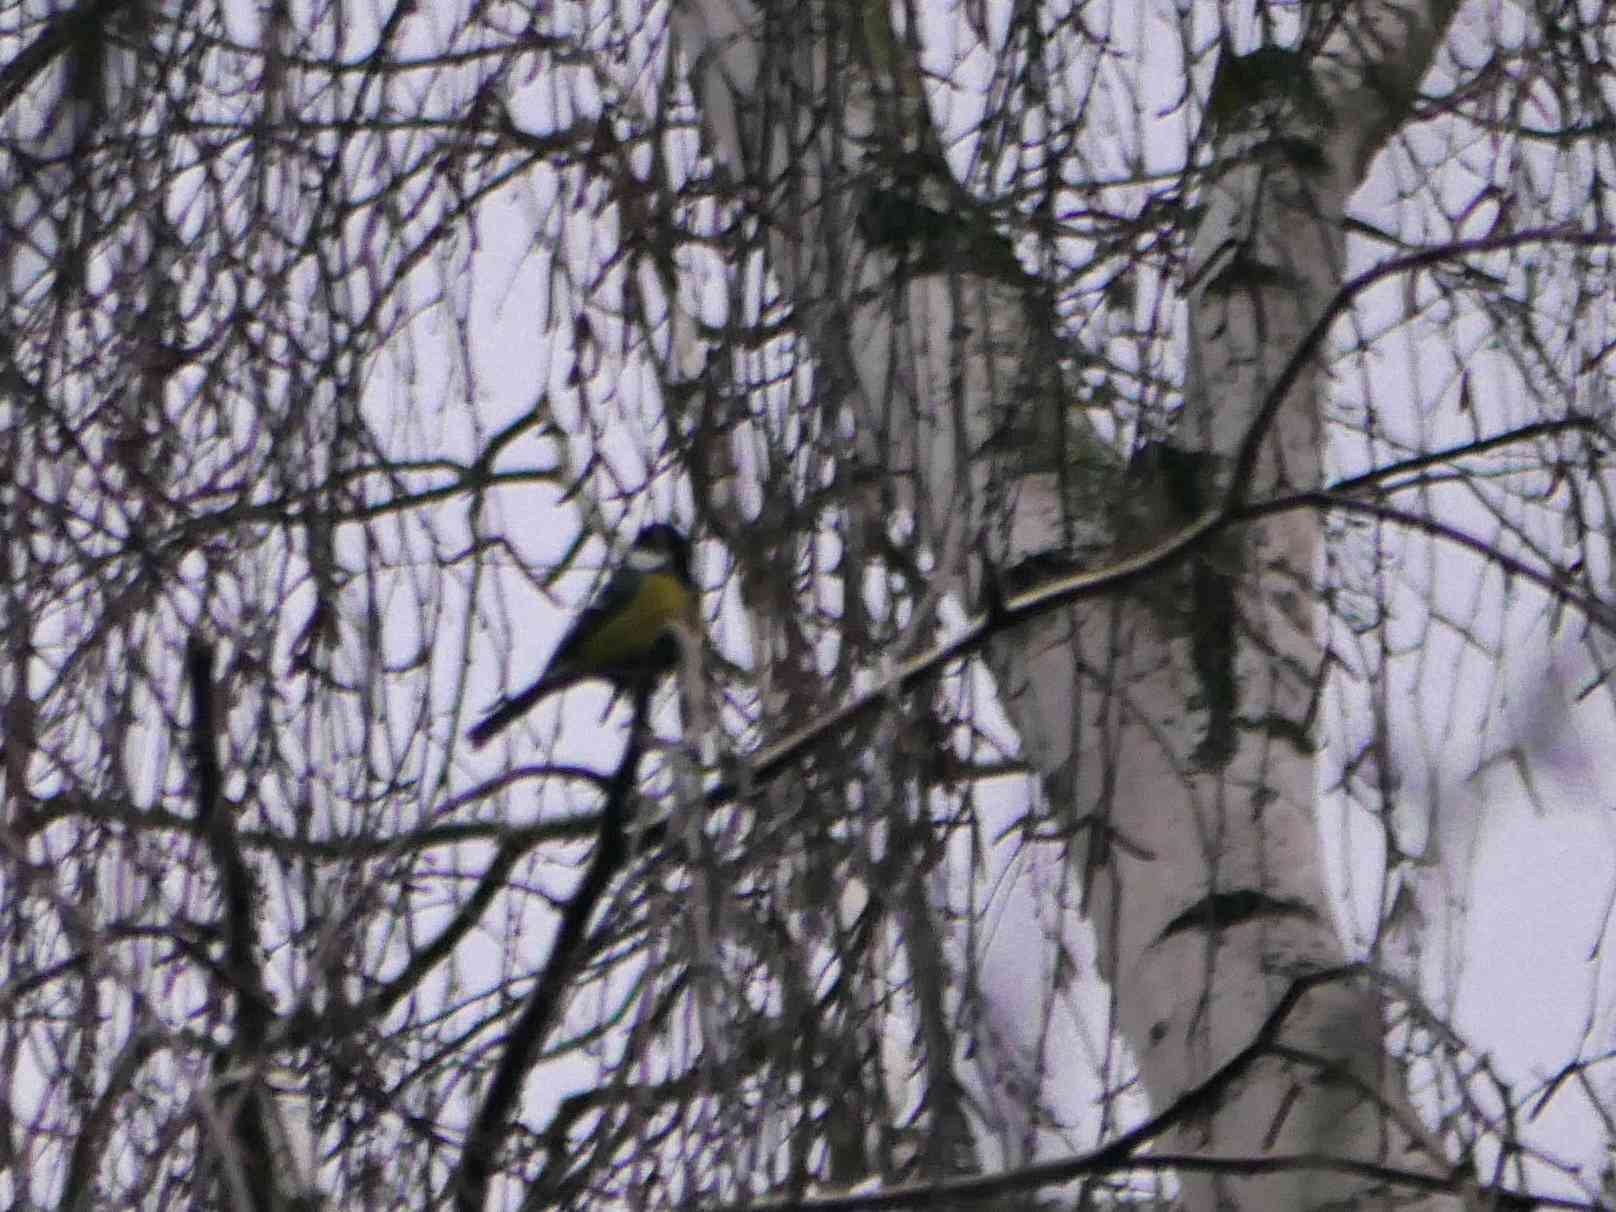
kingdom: Animalia
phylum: Chordata
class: Aves
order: Passeriformes
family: Paridae
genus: Parus
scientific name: Parus major
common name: Great tit
